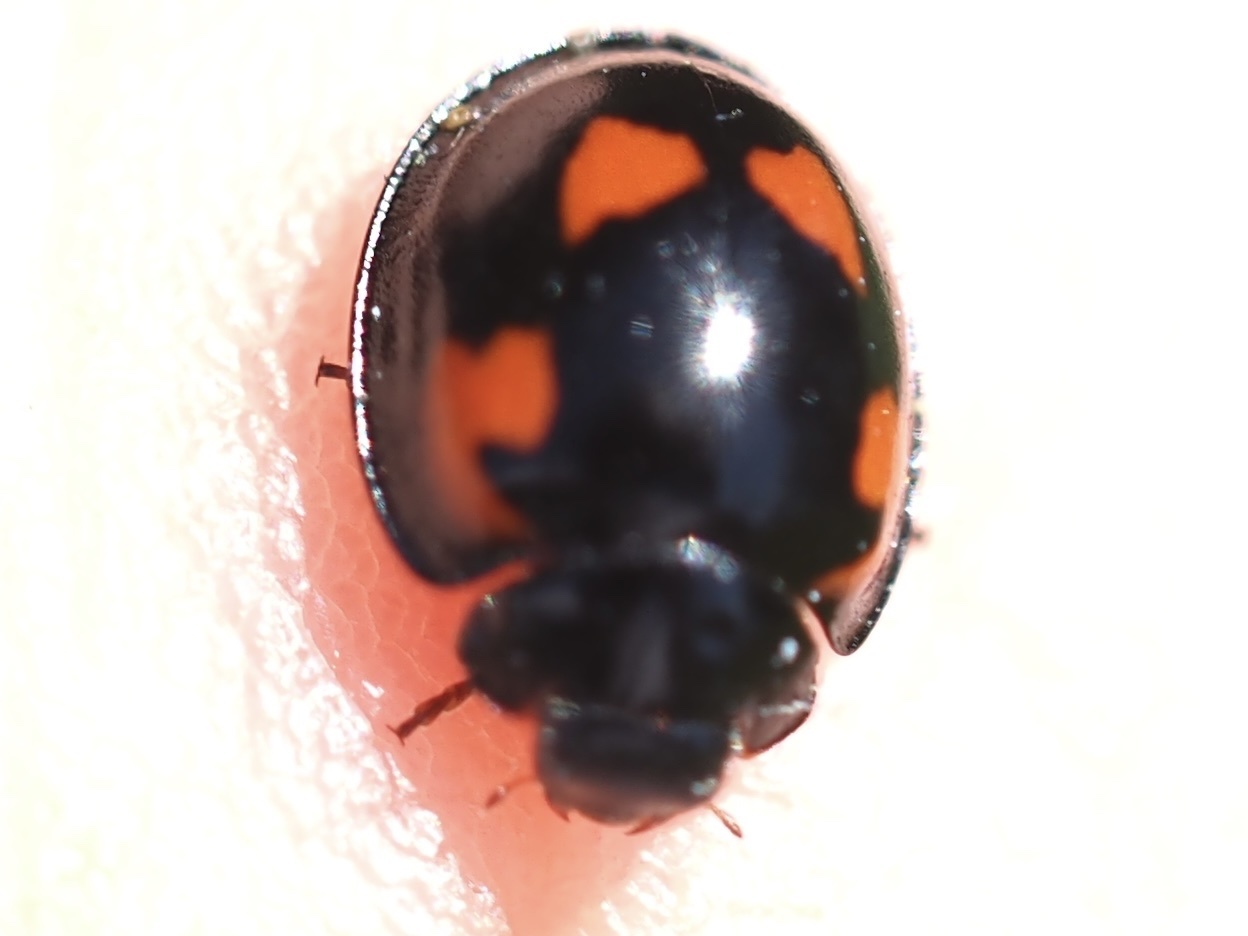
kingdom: Animalia
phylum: Arthropoda
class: Insecta
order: Coleoptera
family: Coccinellidae
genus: Brumus
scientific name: Brumus quadripustulatus
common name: Ladybird beetle
